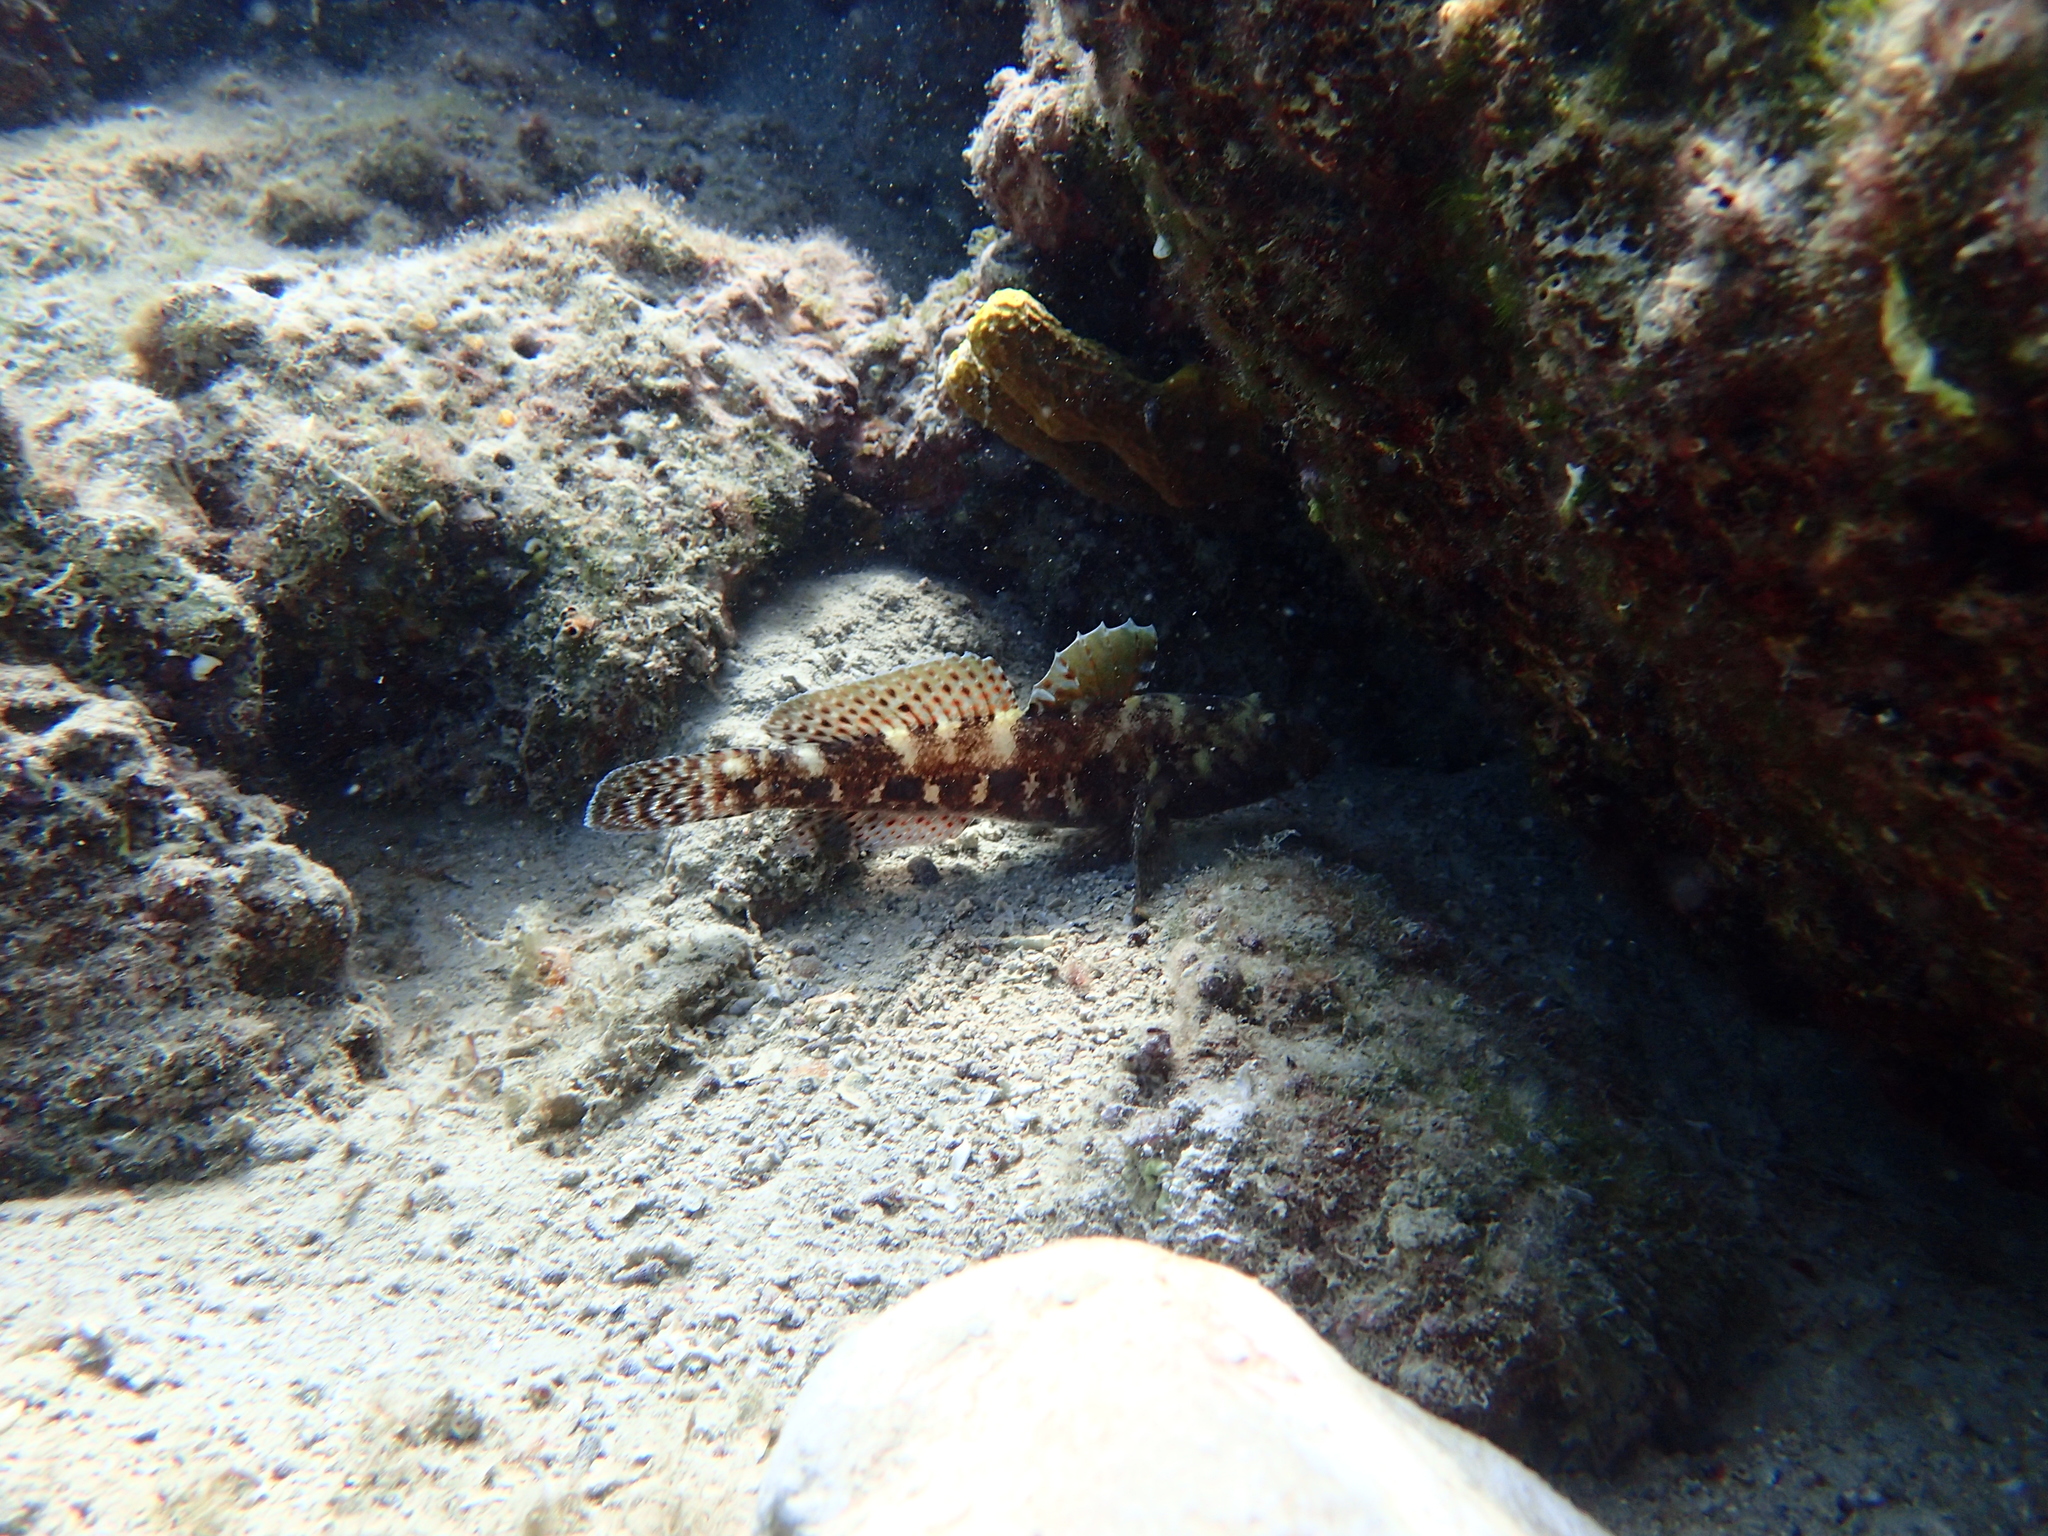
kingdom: Animalia
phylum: Chordata
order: Perciformes
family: Gobiidae
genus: Gobius
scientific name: Gobius cruentatus
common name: Red-mouthed goby
